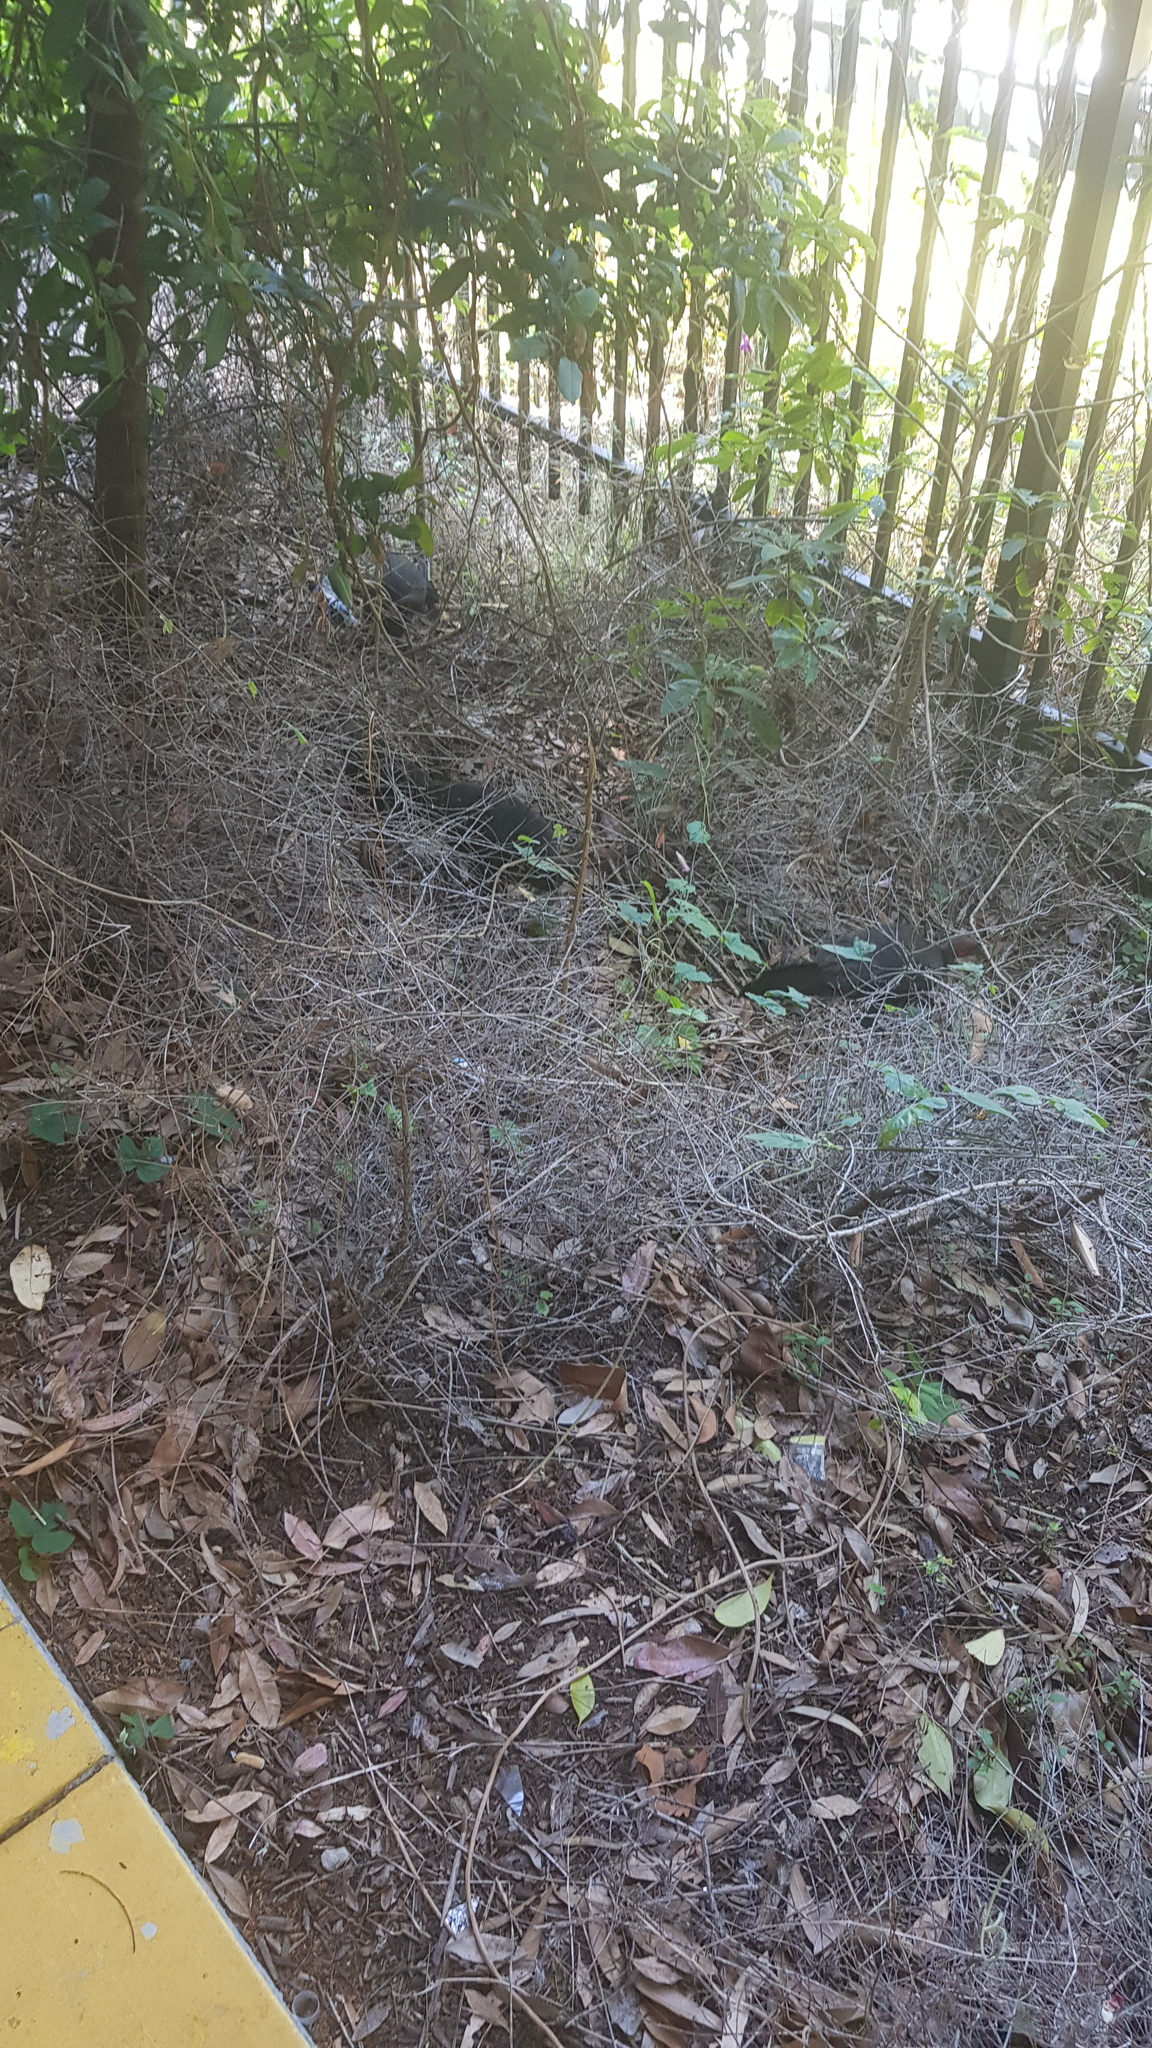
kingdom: Animalia
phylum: Chordata
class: Aves
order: Galliformes
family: Megapodiidae
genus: Alectura
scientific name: Alectura lathami
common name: Australian brushturkey
